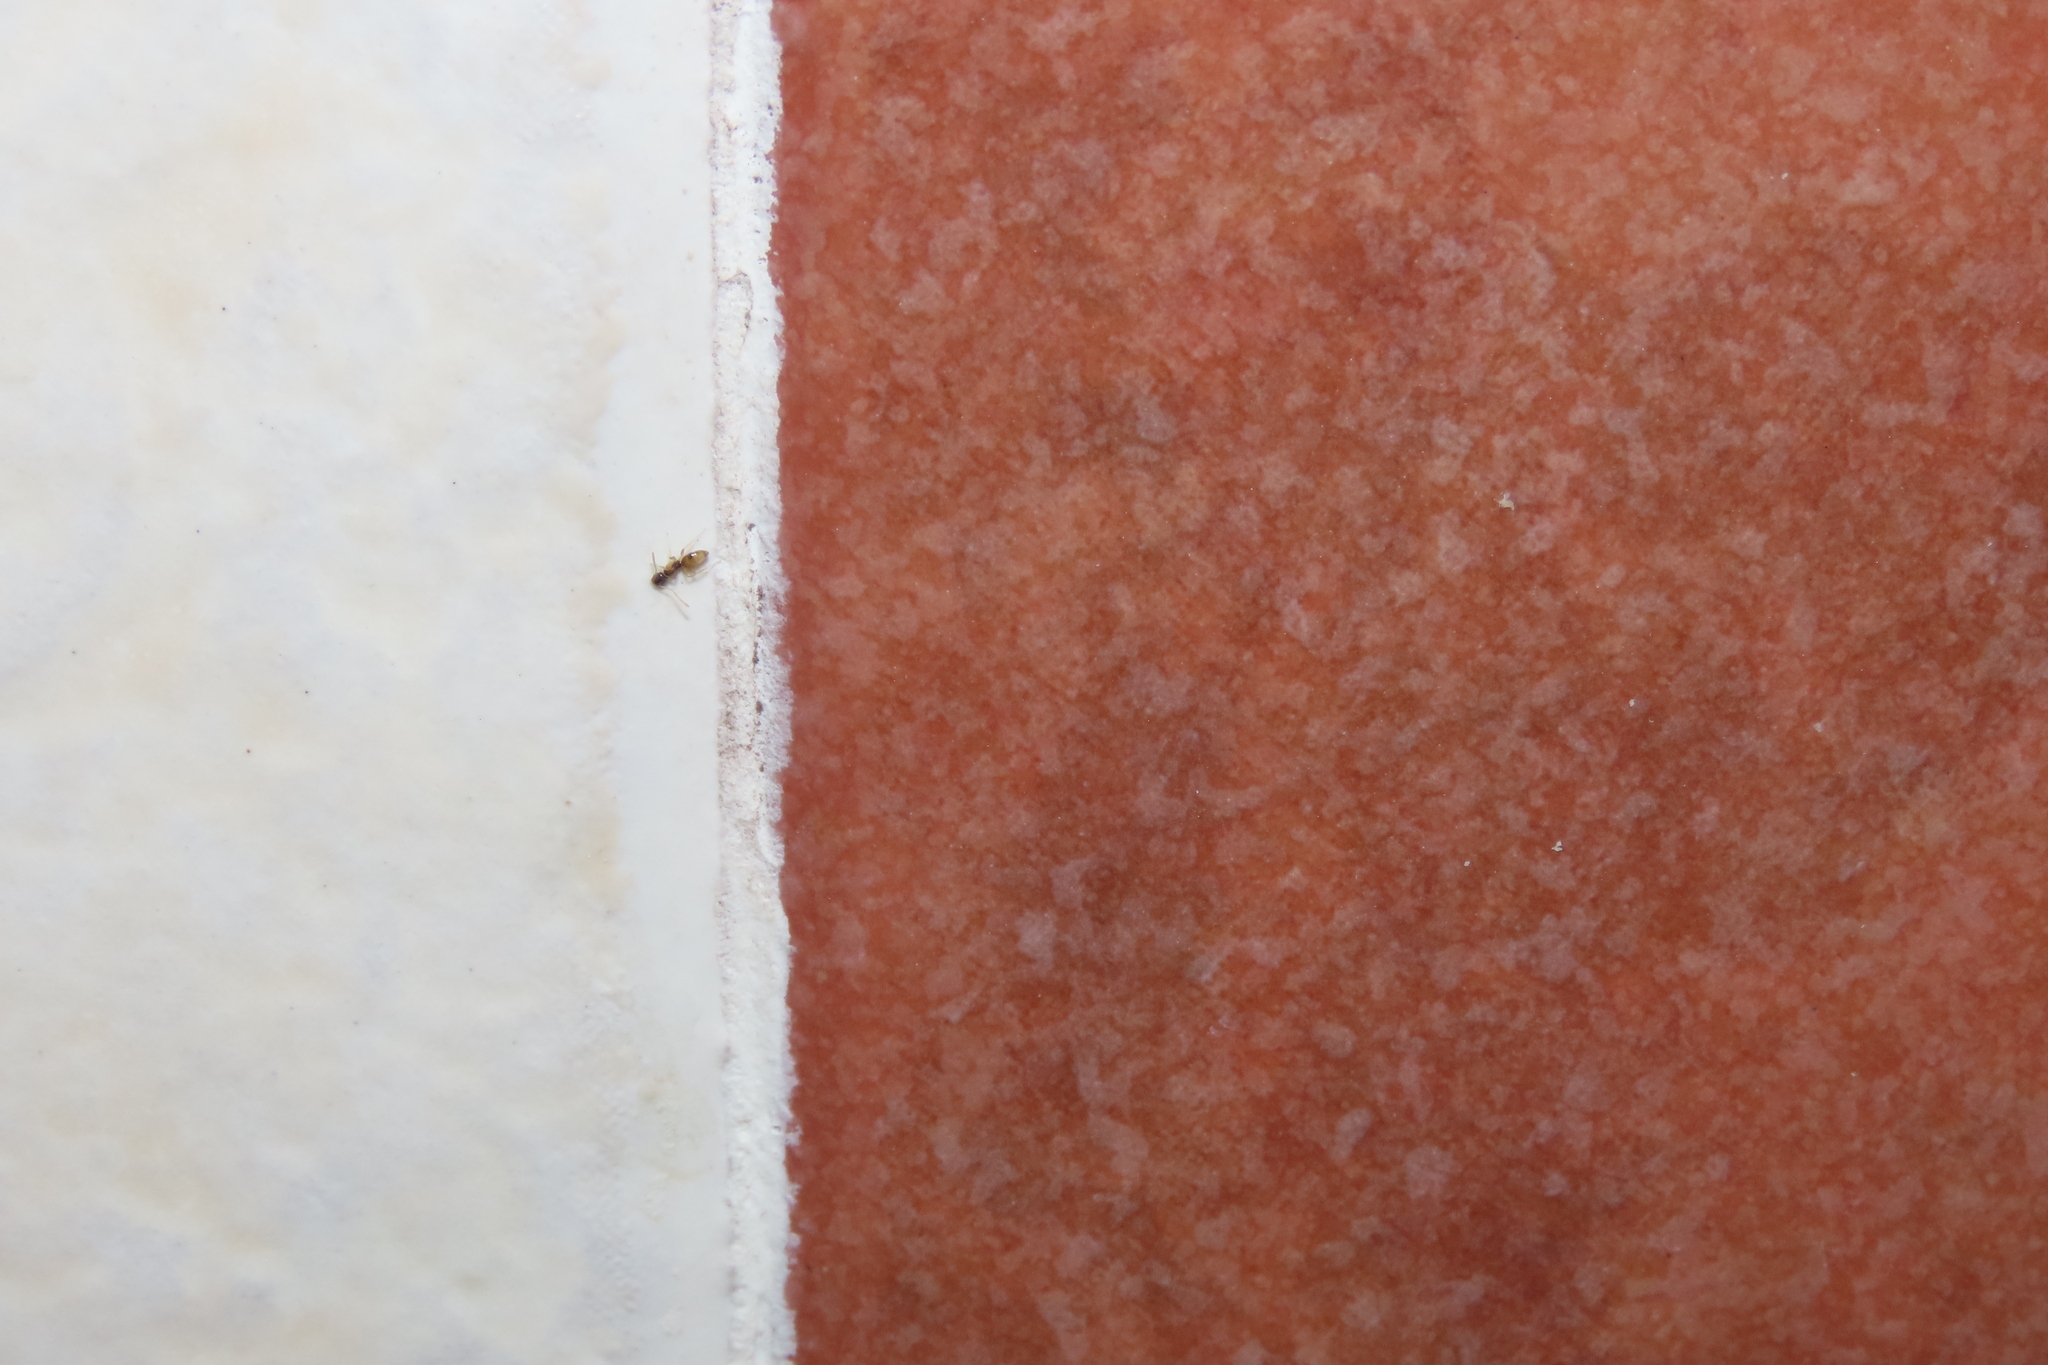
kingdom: Animalia
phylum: Arthropoda
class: Insecta
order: Hymenoptera
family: Formicidae
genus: Tapinoma
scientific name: Tapinoma melanocephalum
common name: Ghost ant
